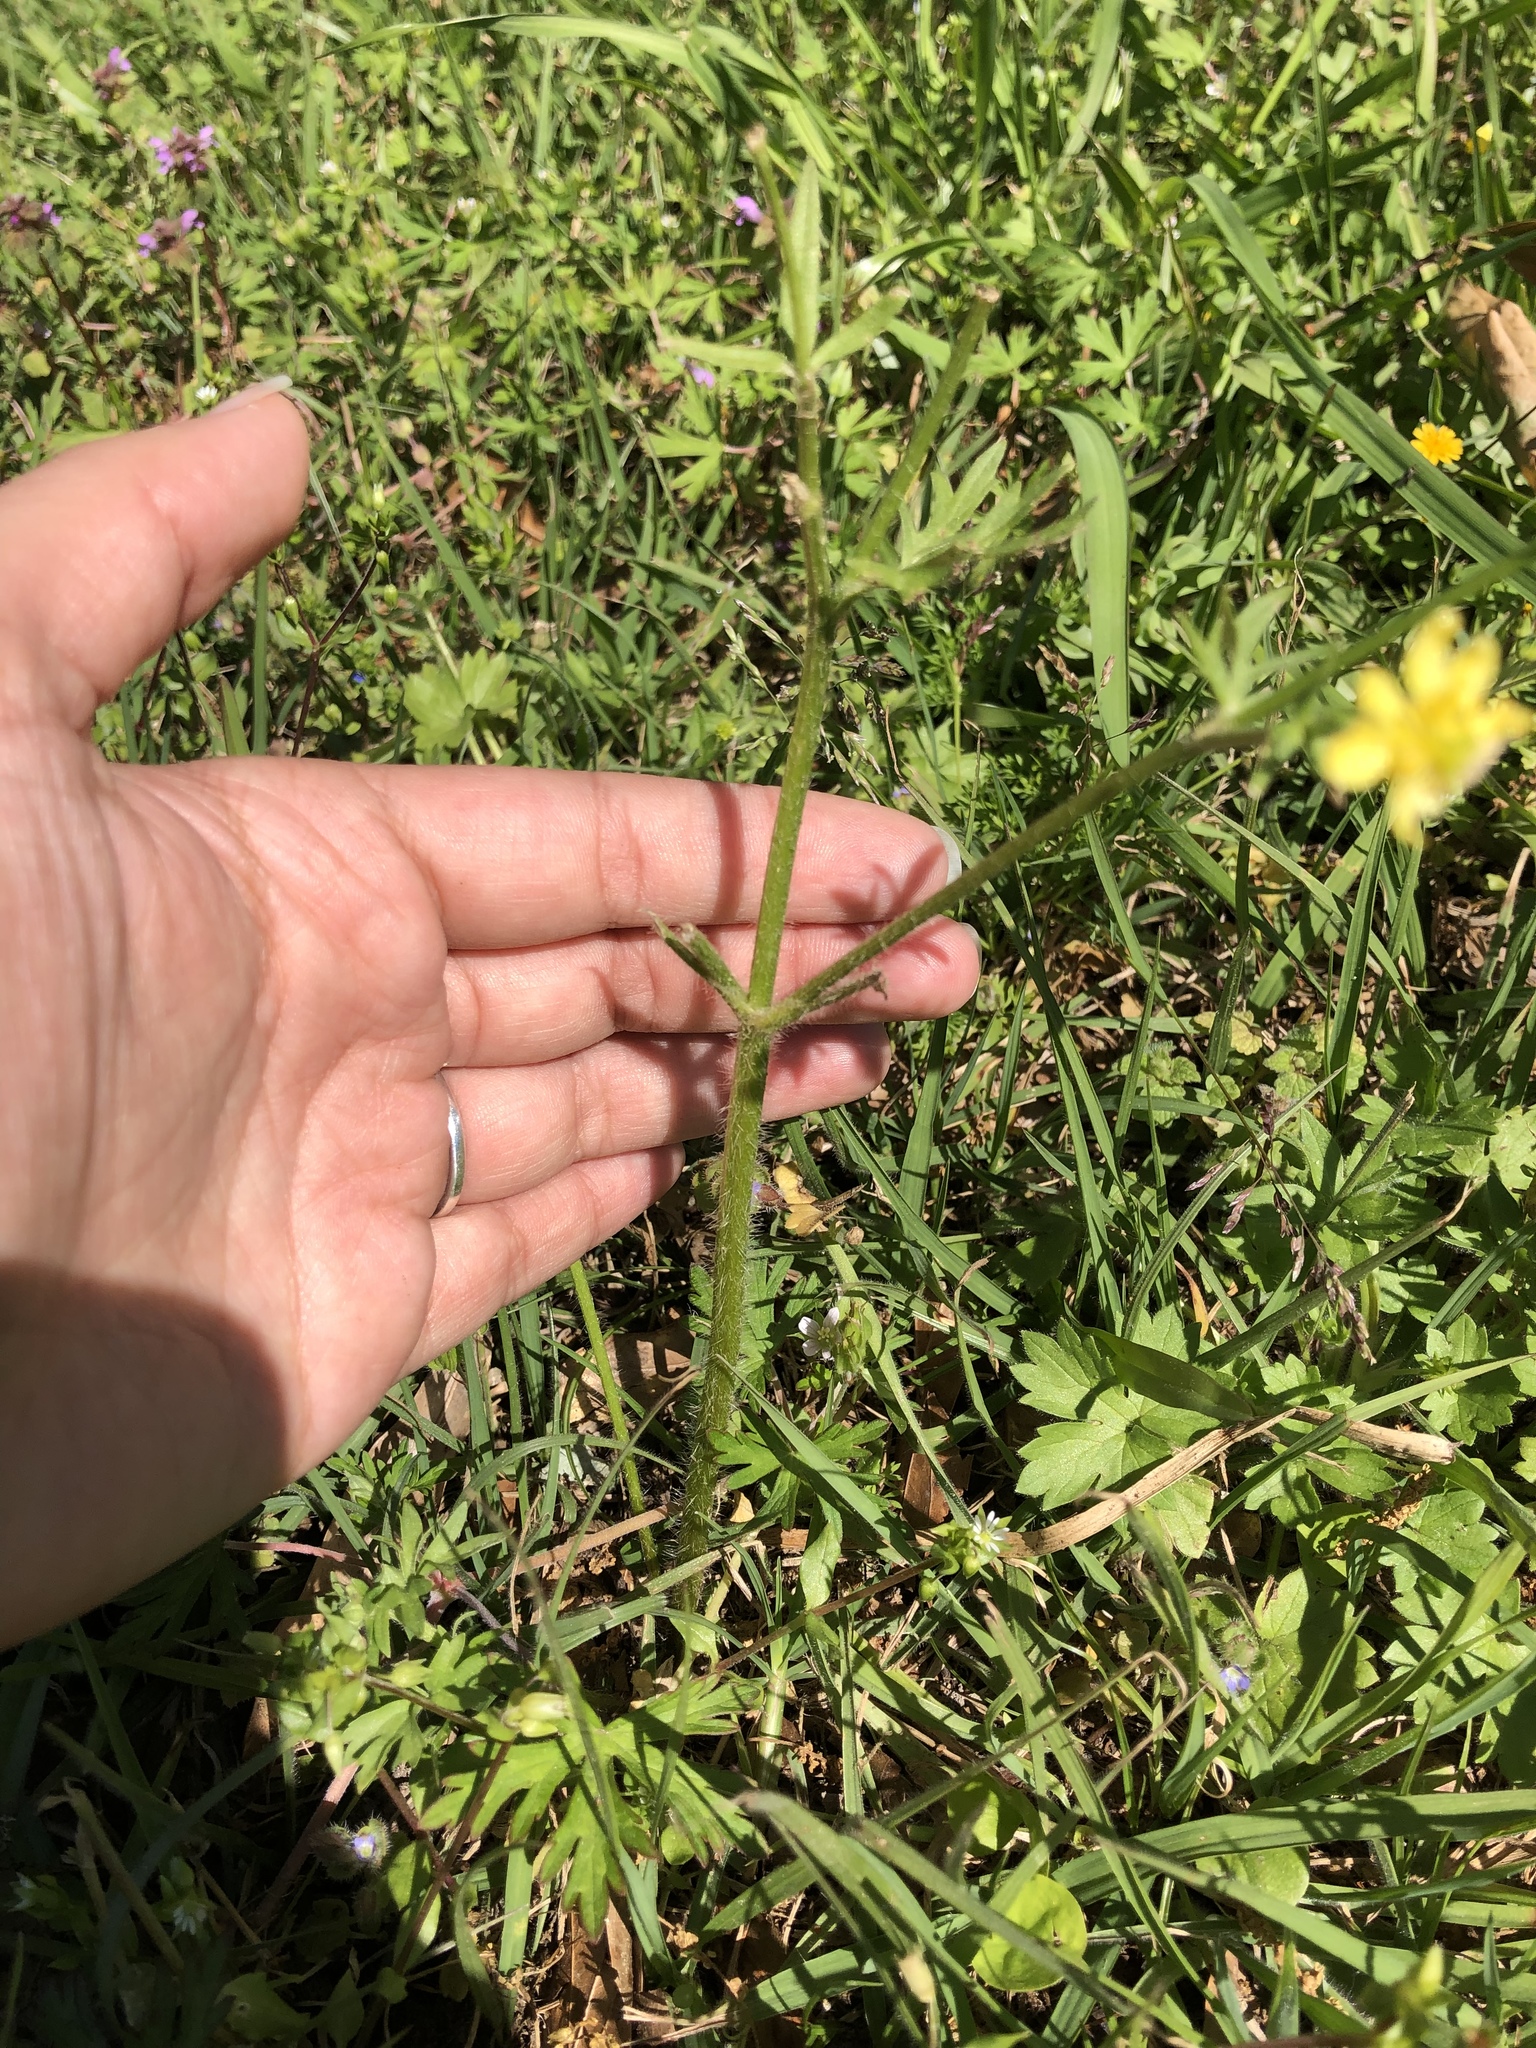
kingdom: Plantae
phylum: Tracheophyta
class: Magnoliopsida
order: Ranunculales
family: Ranunculaceae
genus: Ranunculus
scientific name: Ranunculus sardous
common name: Hairy buttercup
